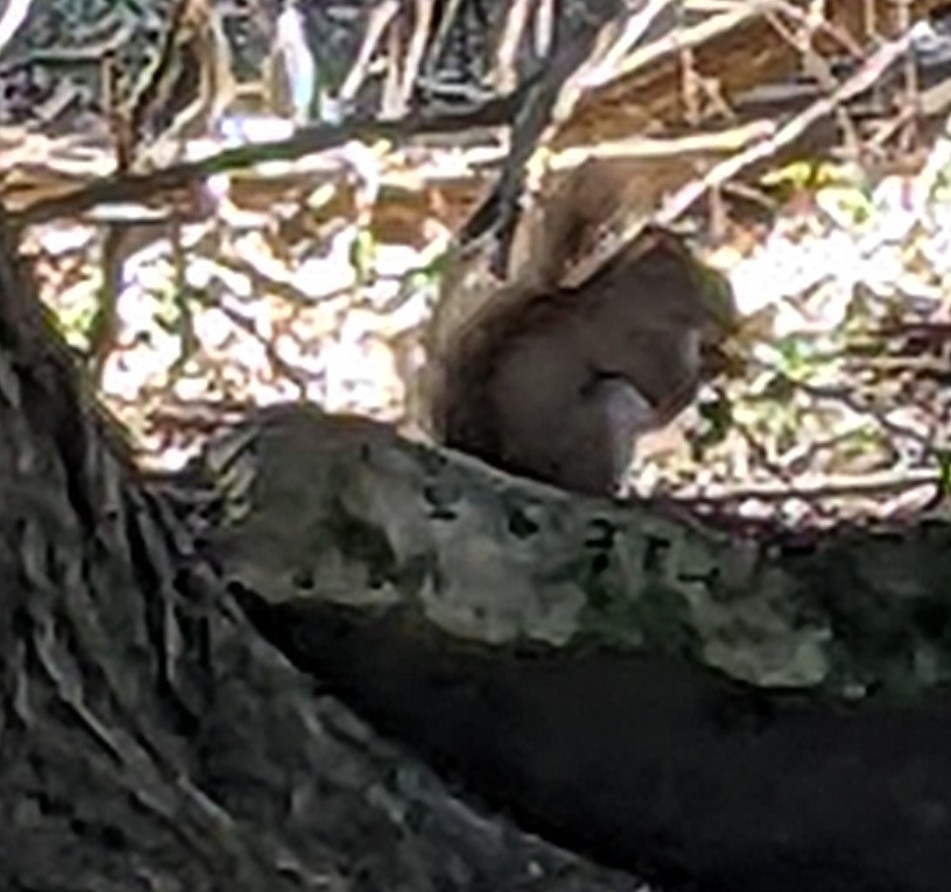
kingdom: Animalia
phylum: Chordata
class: Mammalia
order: Rodentia
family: Sciuridae
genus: Tamiasciurus
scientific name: Tamiasciurus hudsonicus
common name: Red squirrel
